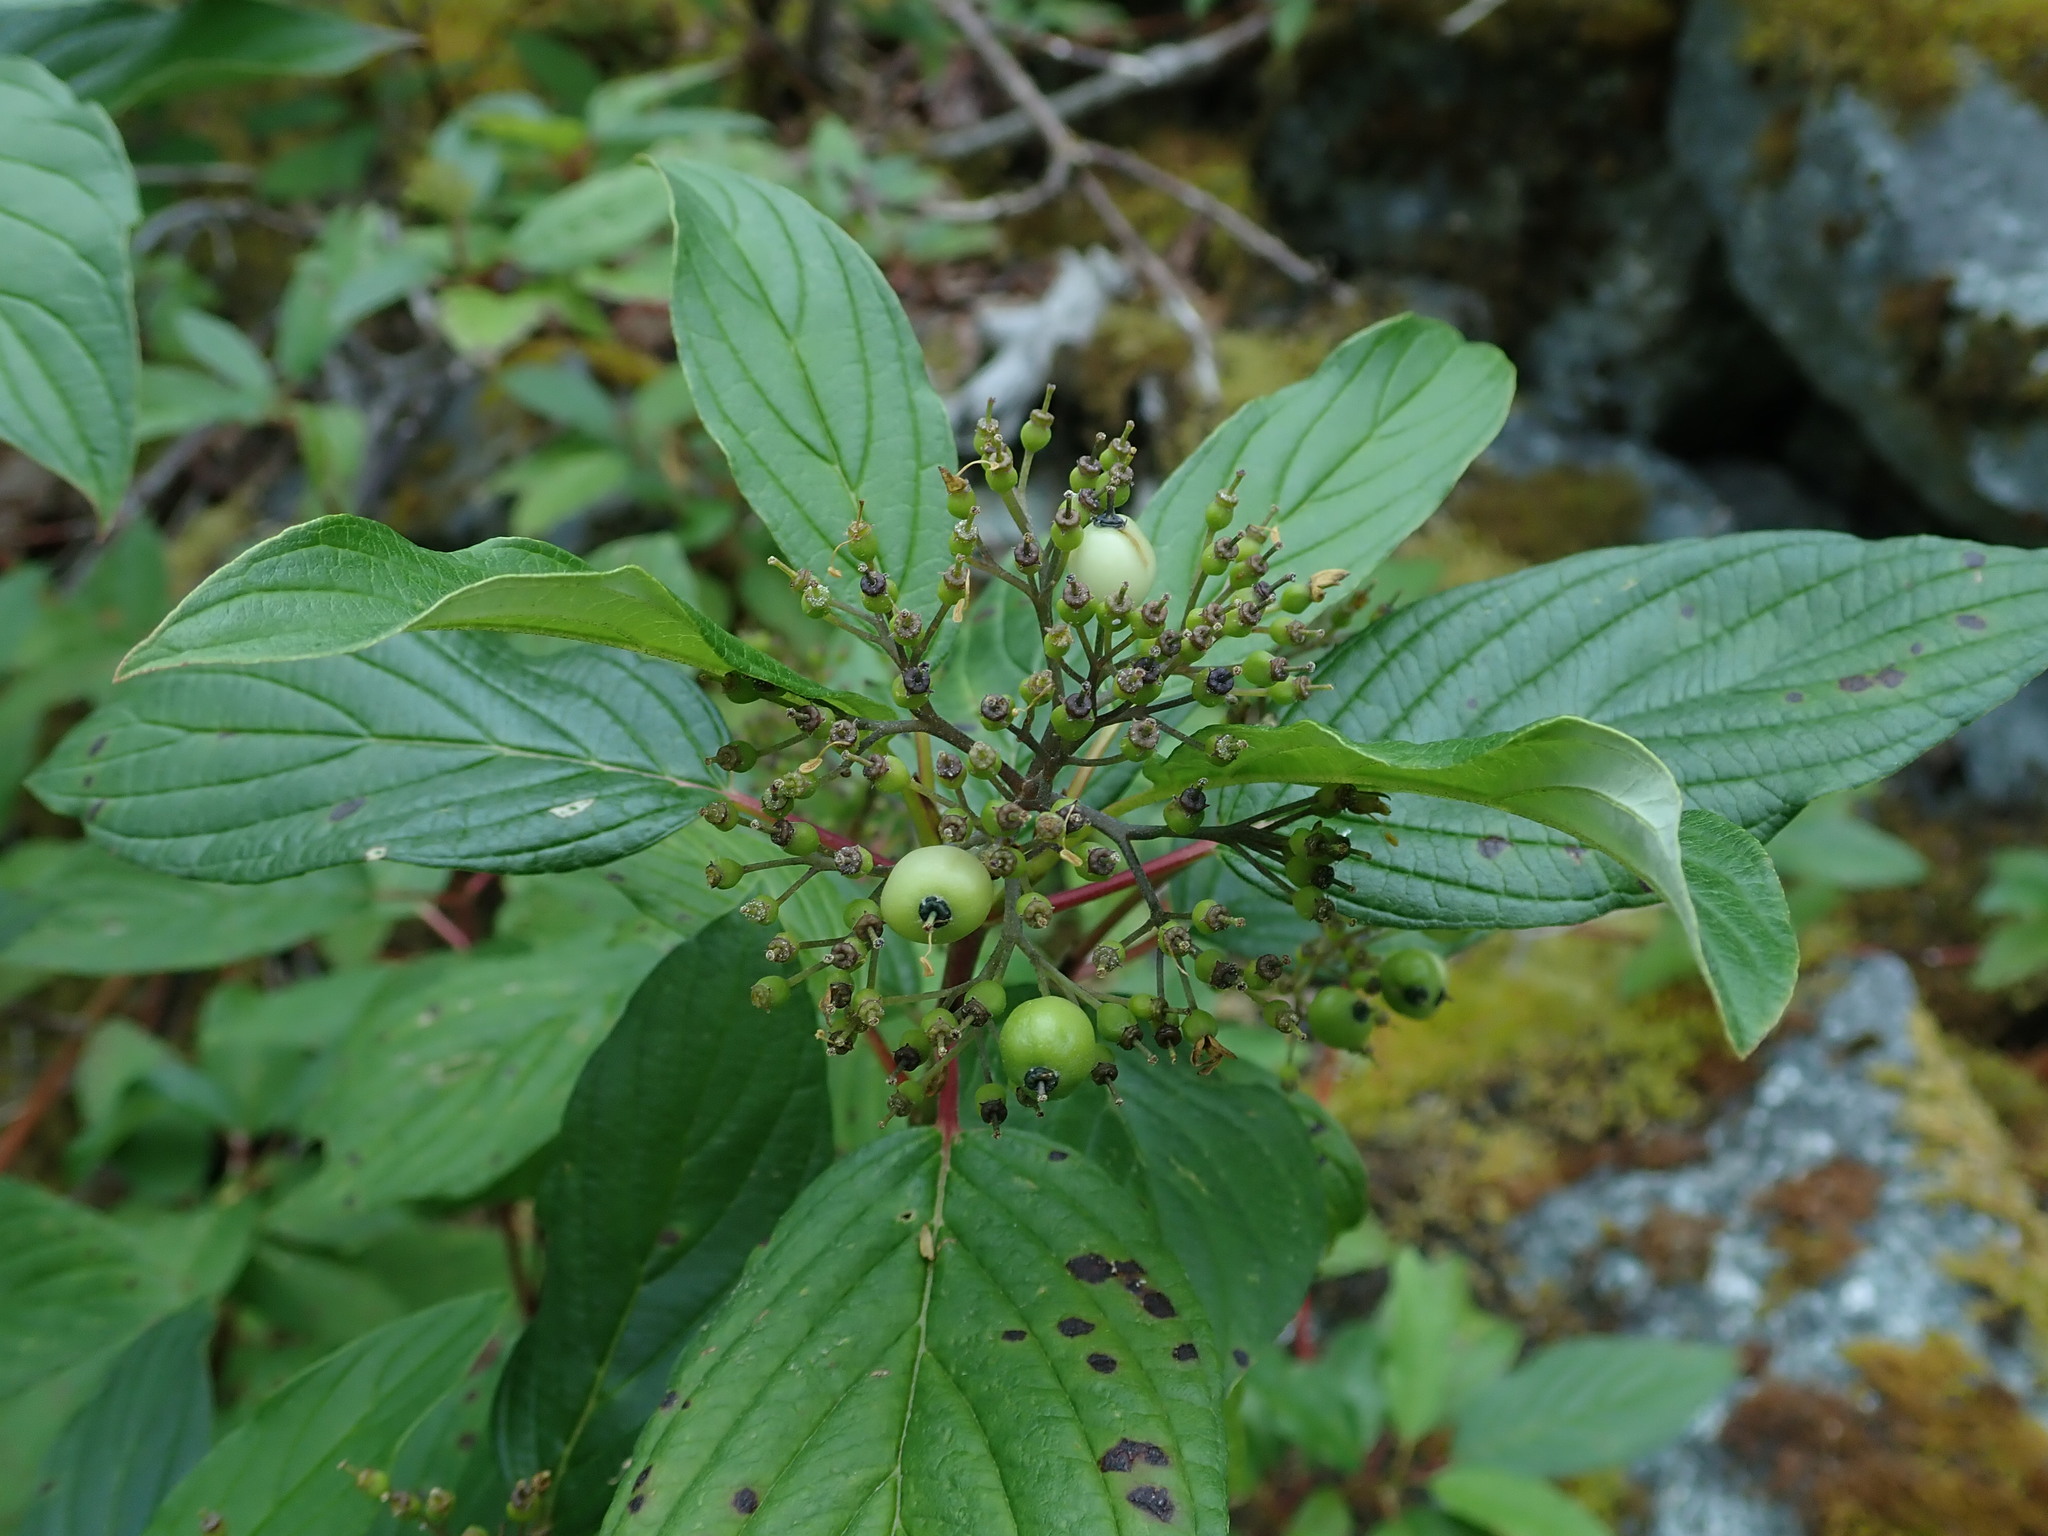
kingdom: Plantae
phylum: Tracheophyta
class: Magnoliopsida
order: Cornales
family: Cornaceae
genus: Cornus
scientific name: Cornus sericea
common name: Red-osier dogwood
